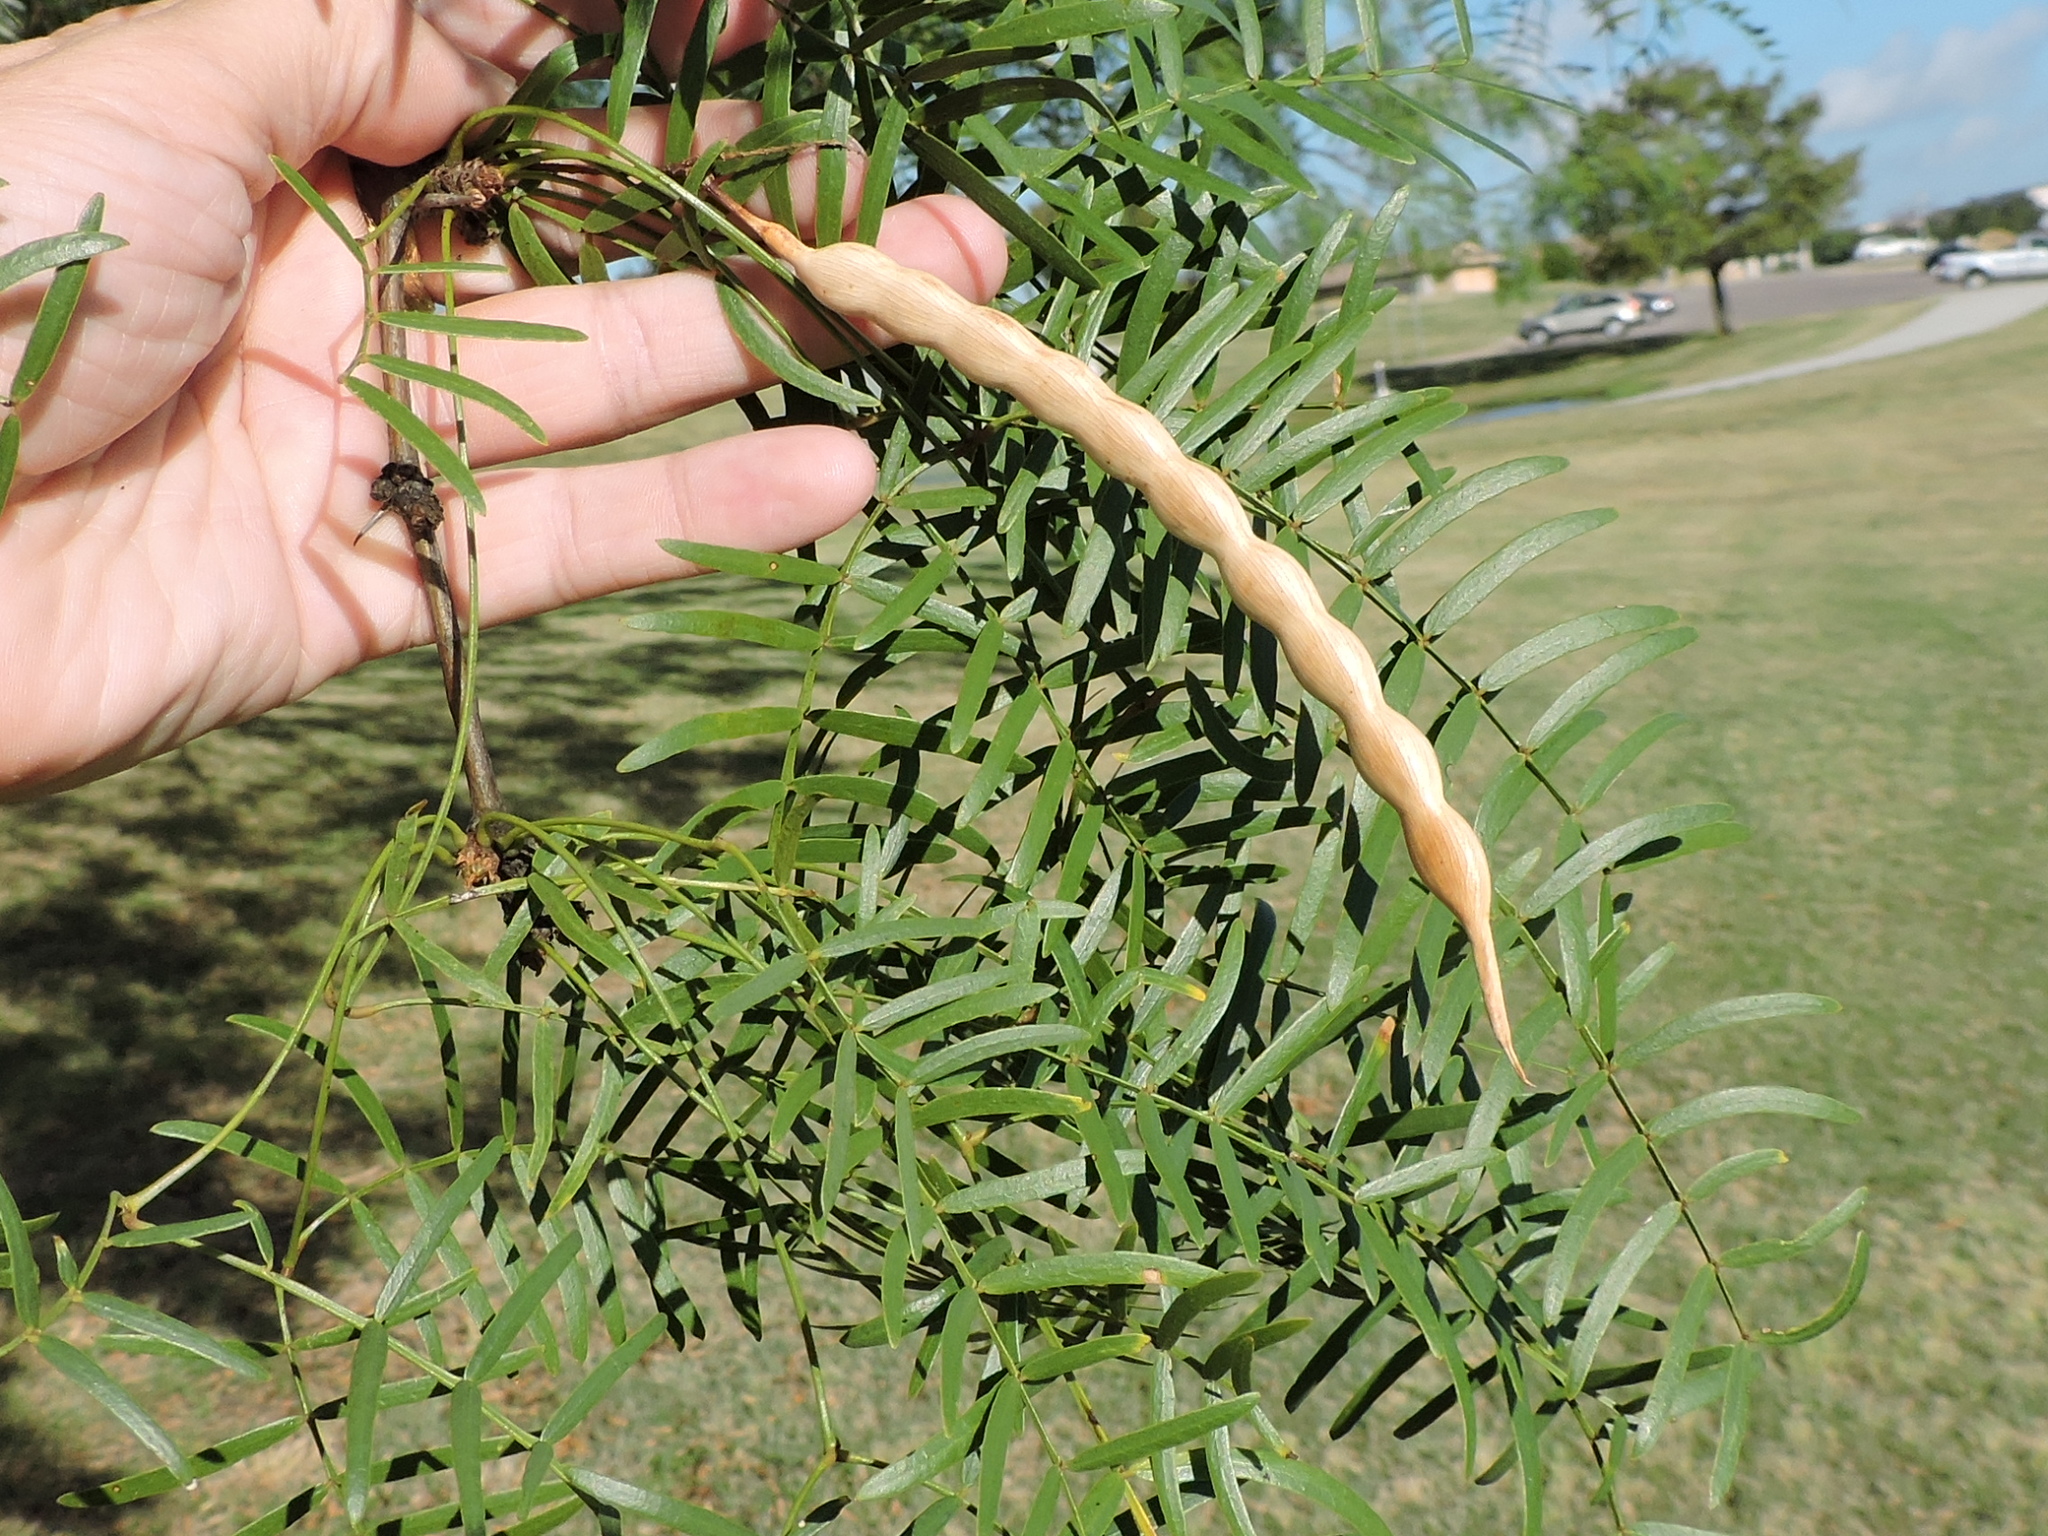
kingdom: Plantae
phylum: Tracheophyta
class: Magnoliopsida
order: Fabales
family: Fabaceae
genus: Prosopis
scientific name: Prosopis glandulosa
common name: Honey mesquite
